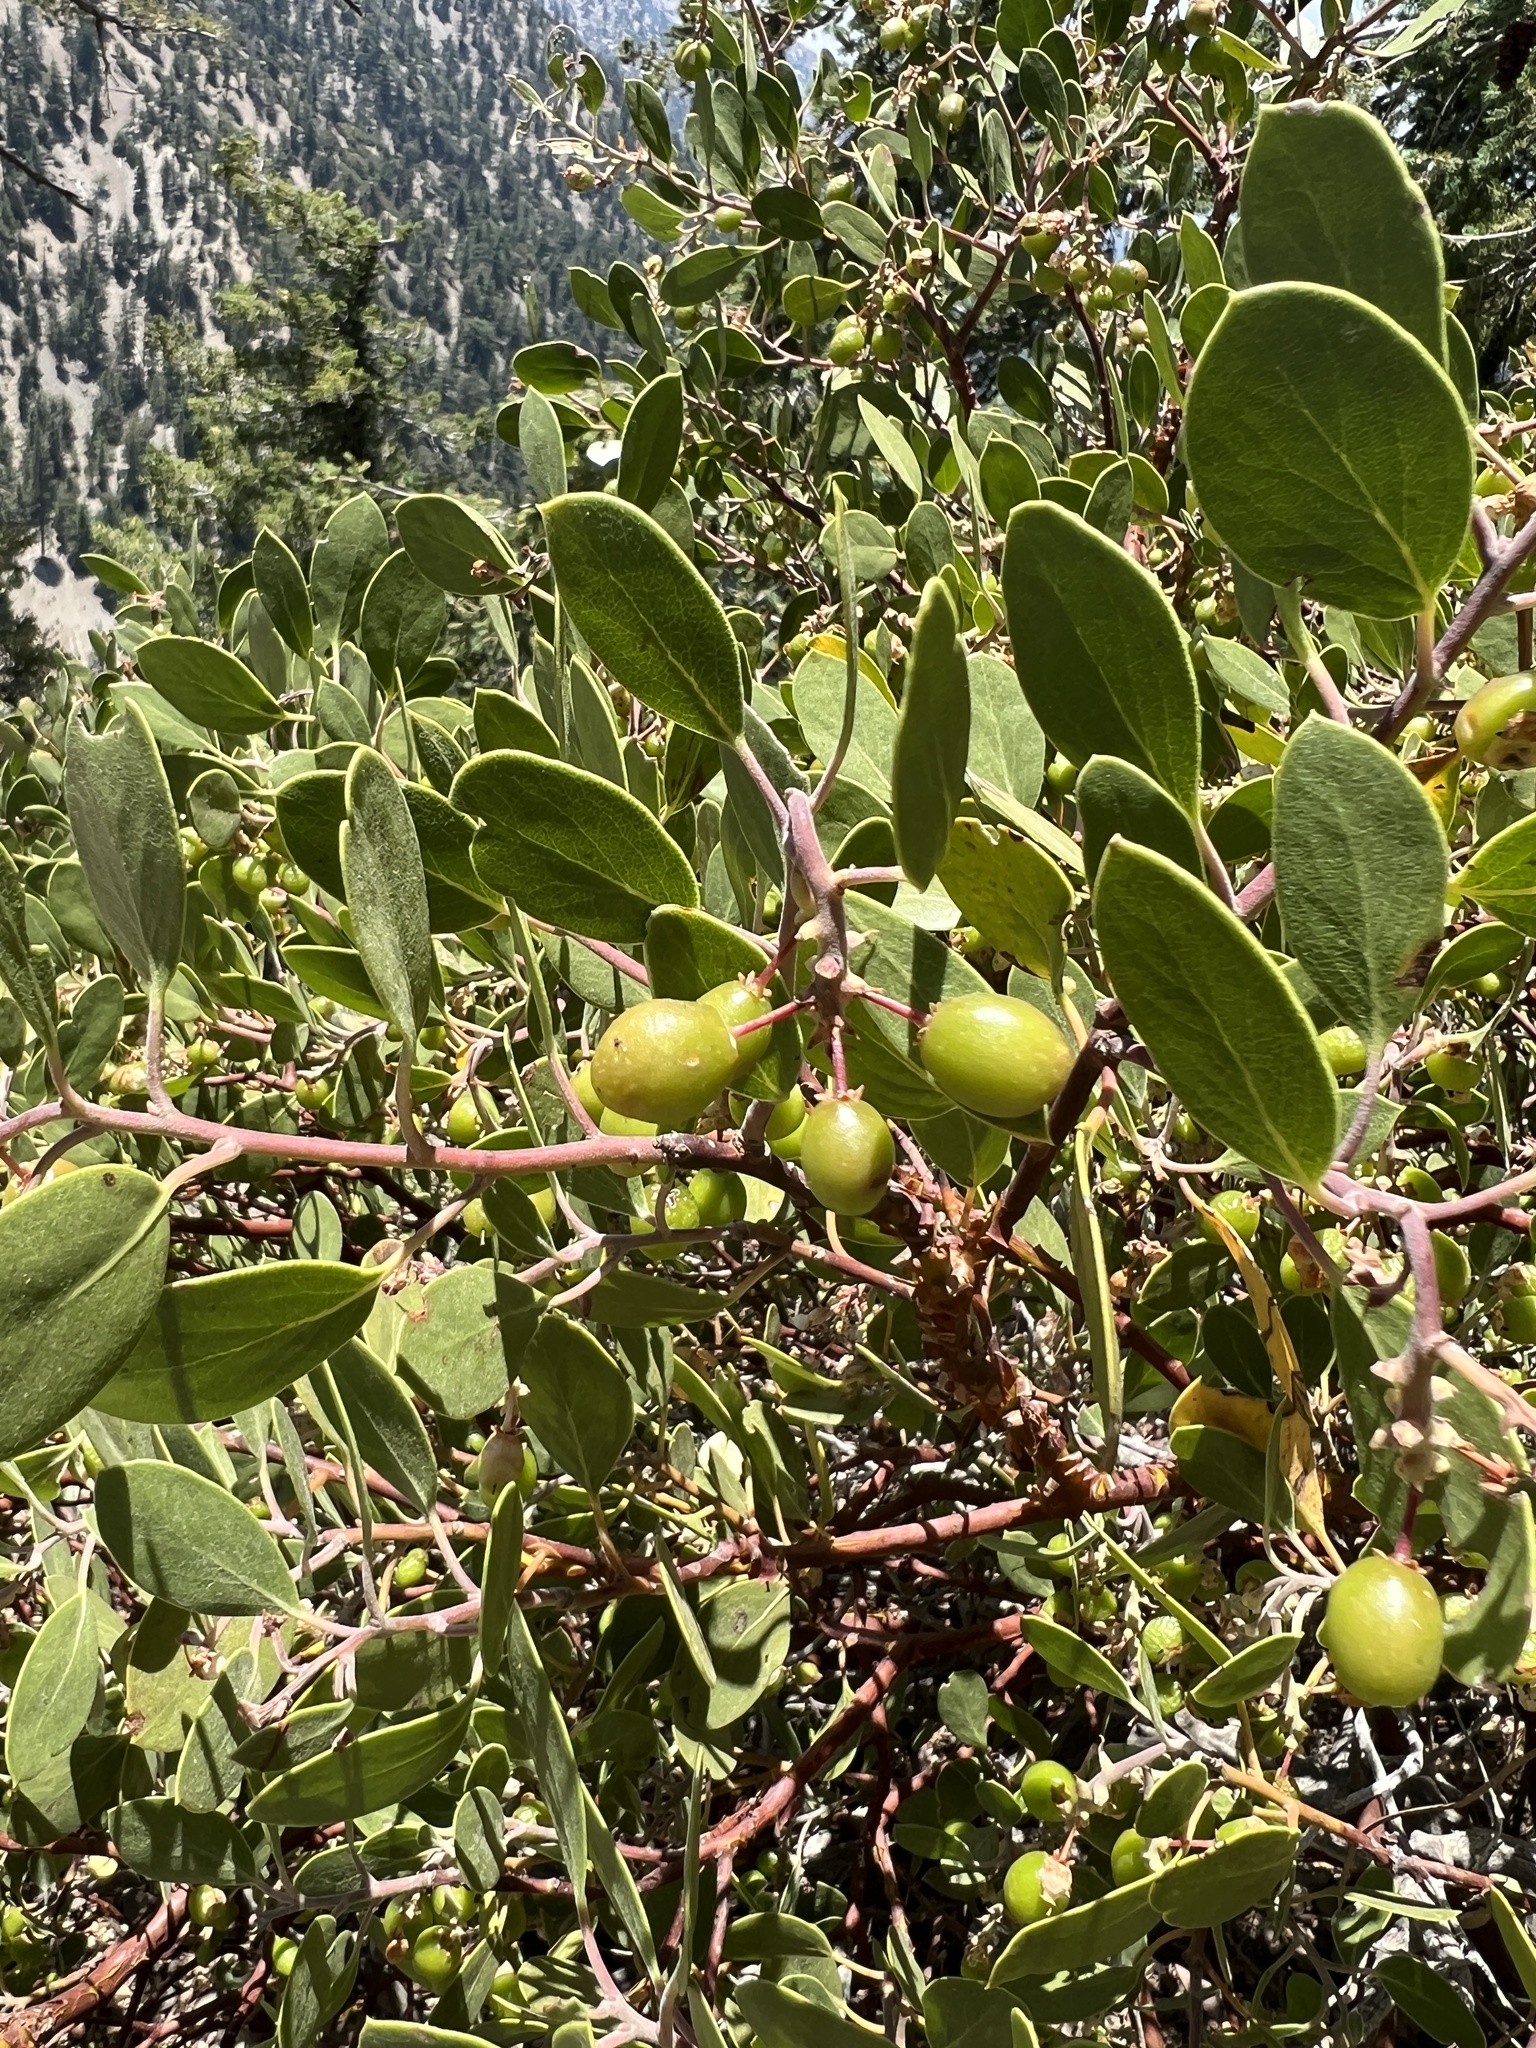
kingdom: Plantae
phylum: Tracheophyta
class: Magnoliopsida
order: Ericales
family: Ericaceae
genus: Arctostaphylos
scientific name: Arctostaphylos parryana
